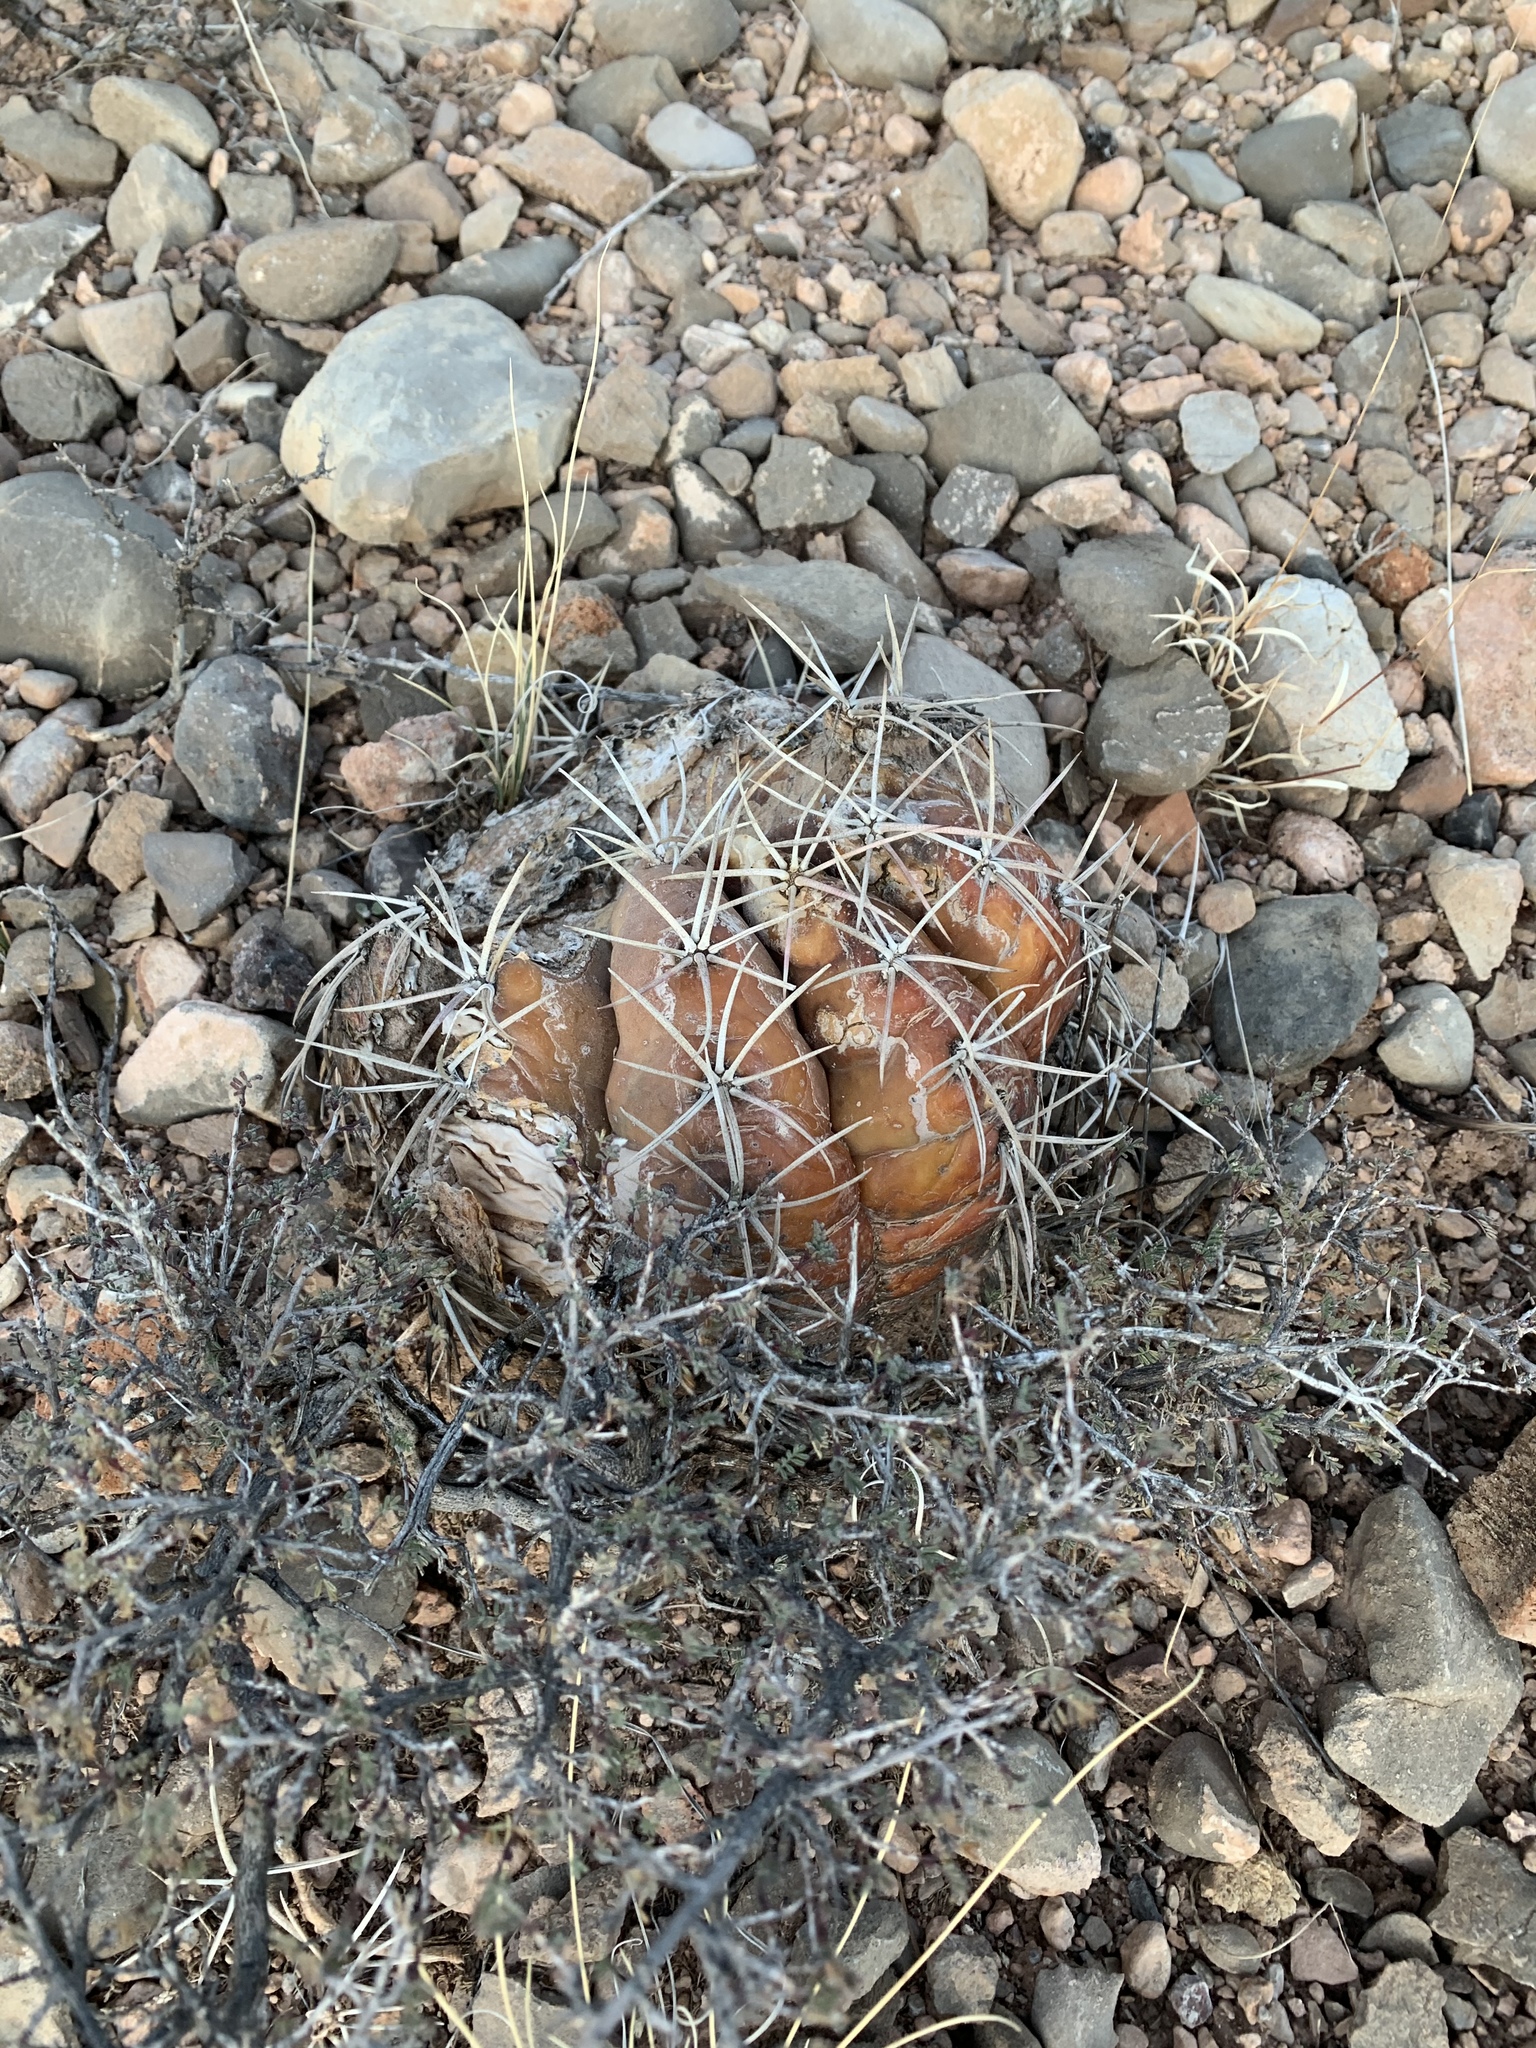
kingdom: Plantae
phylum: Tracheophyta
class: Magnoliopsida
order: Caryophyllales
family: Cactaceae
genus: Echinocactus
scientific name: Echinocactus horizonthalonius
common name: Devilshead
